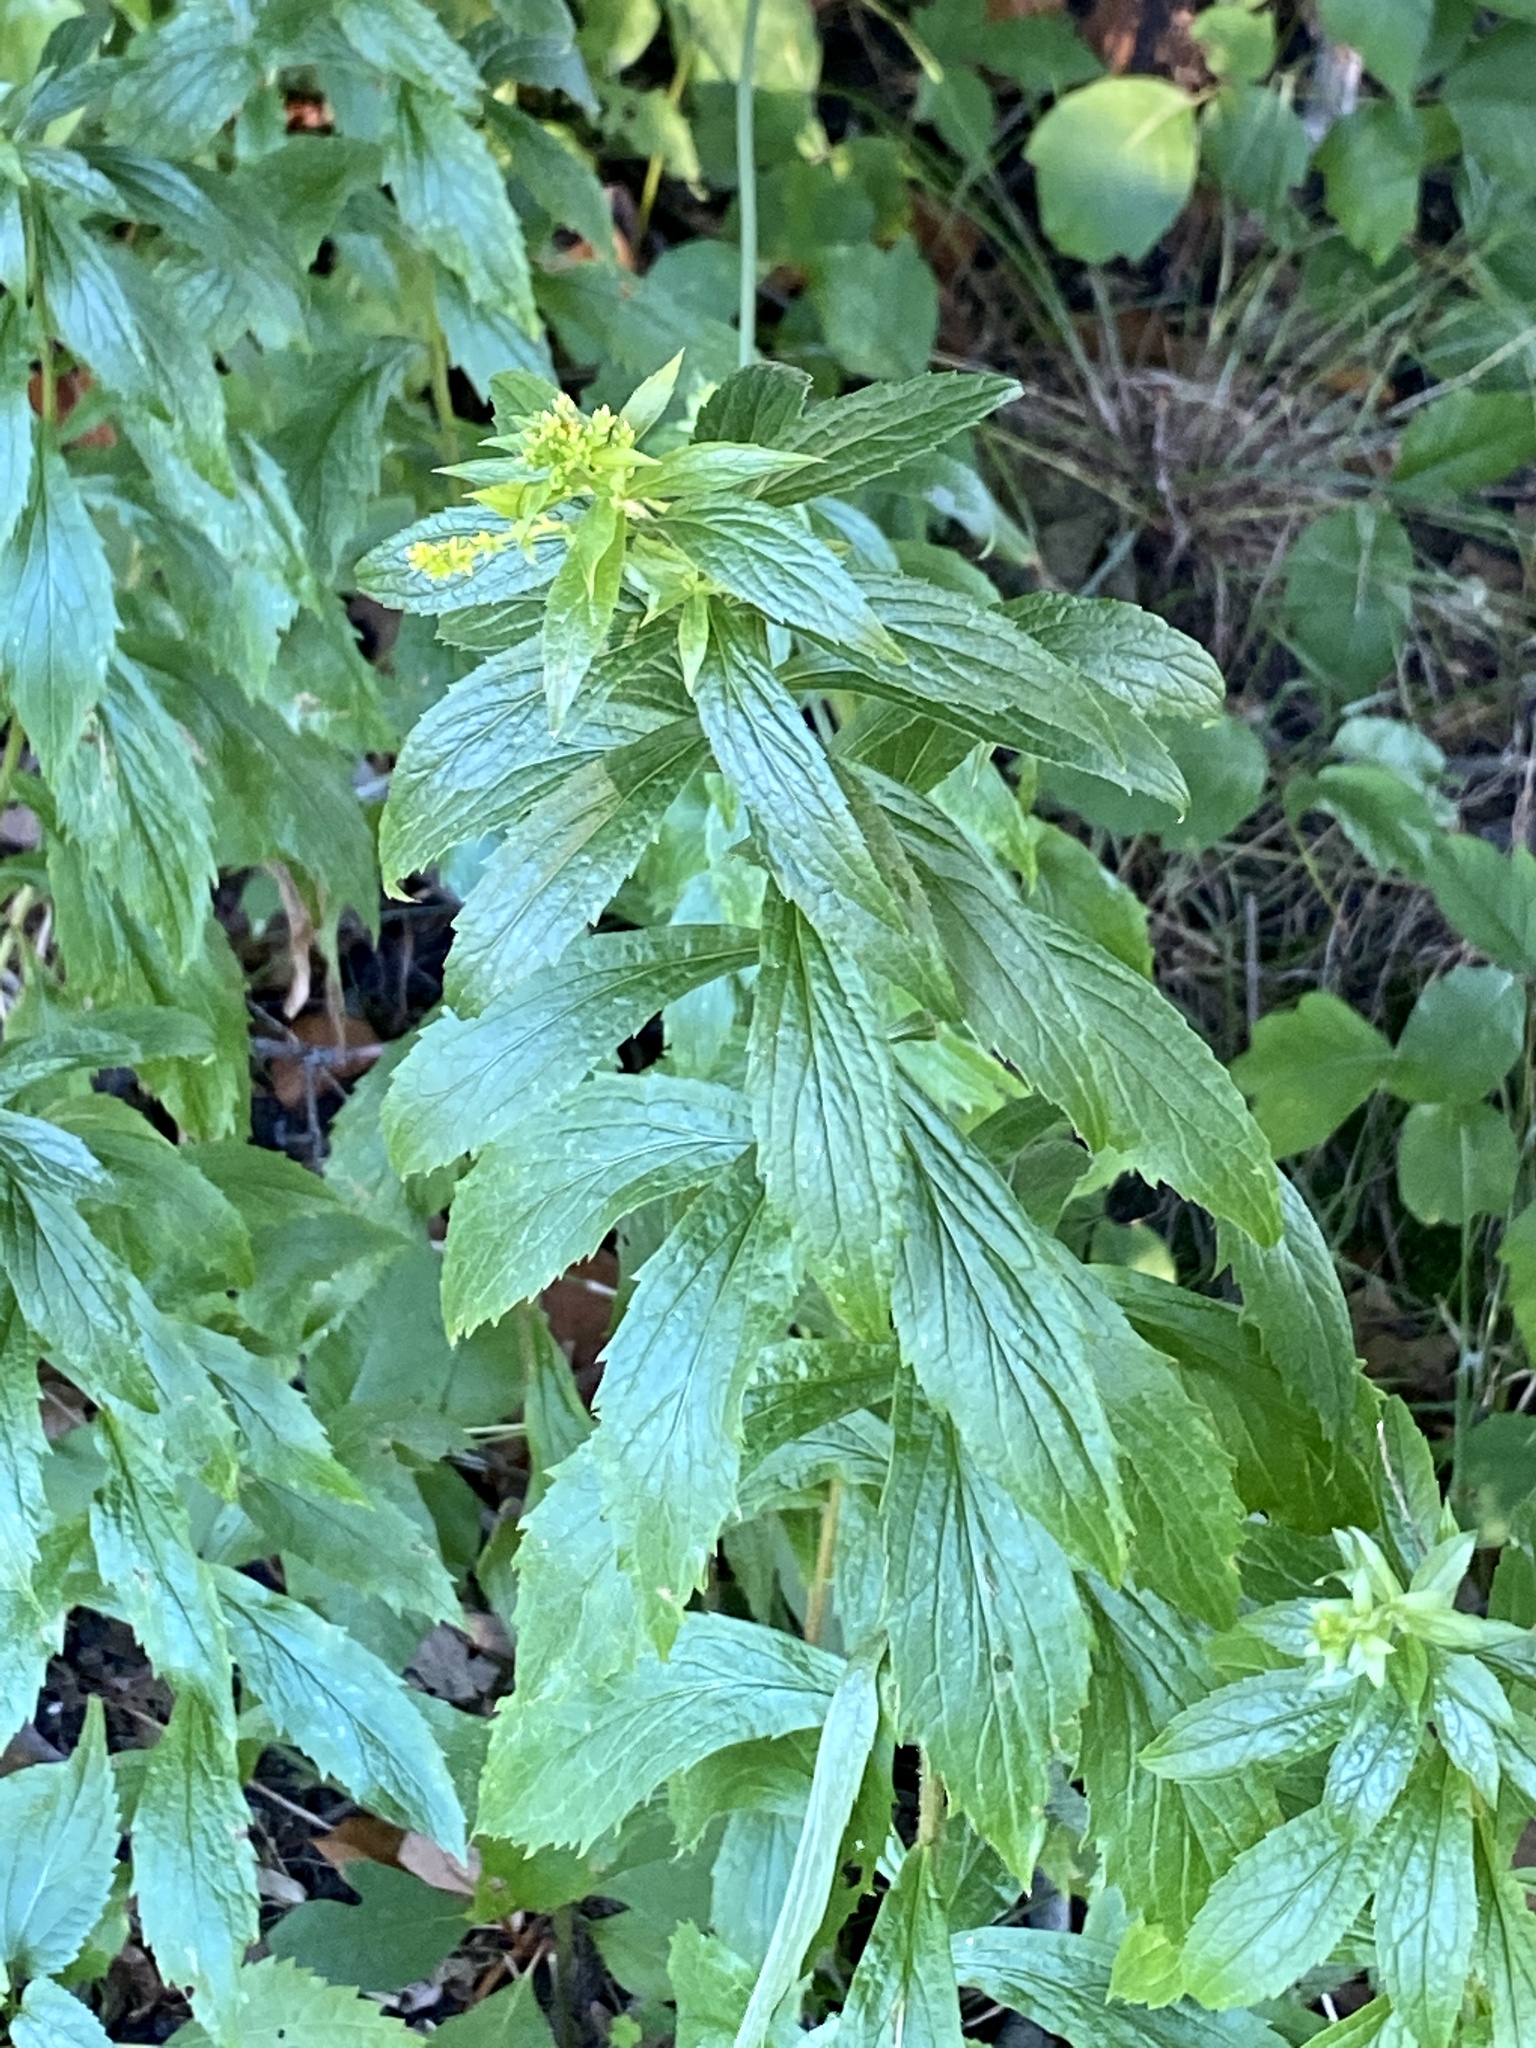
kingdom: Plantae
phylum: Tracheophyta
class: Magnoliopsida
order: Asterales
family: Asteraceae
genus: Solidago
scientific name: Solidago rugosa
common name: Rough-stemmed goldenrod
